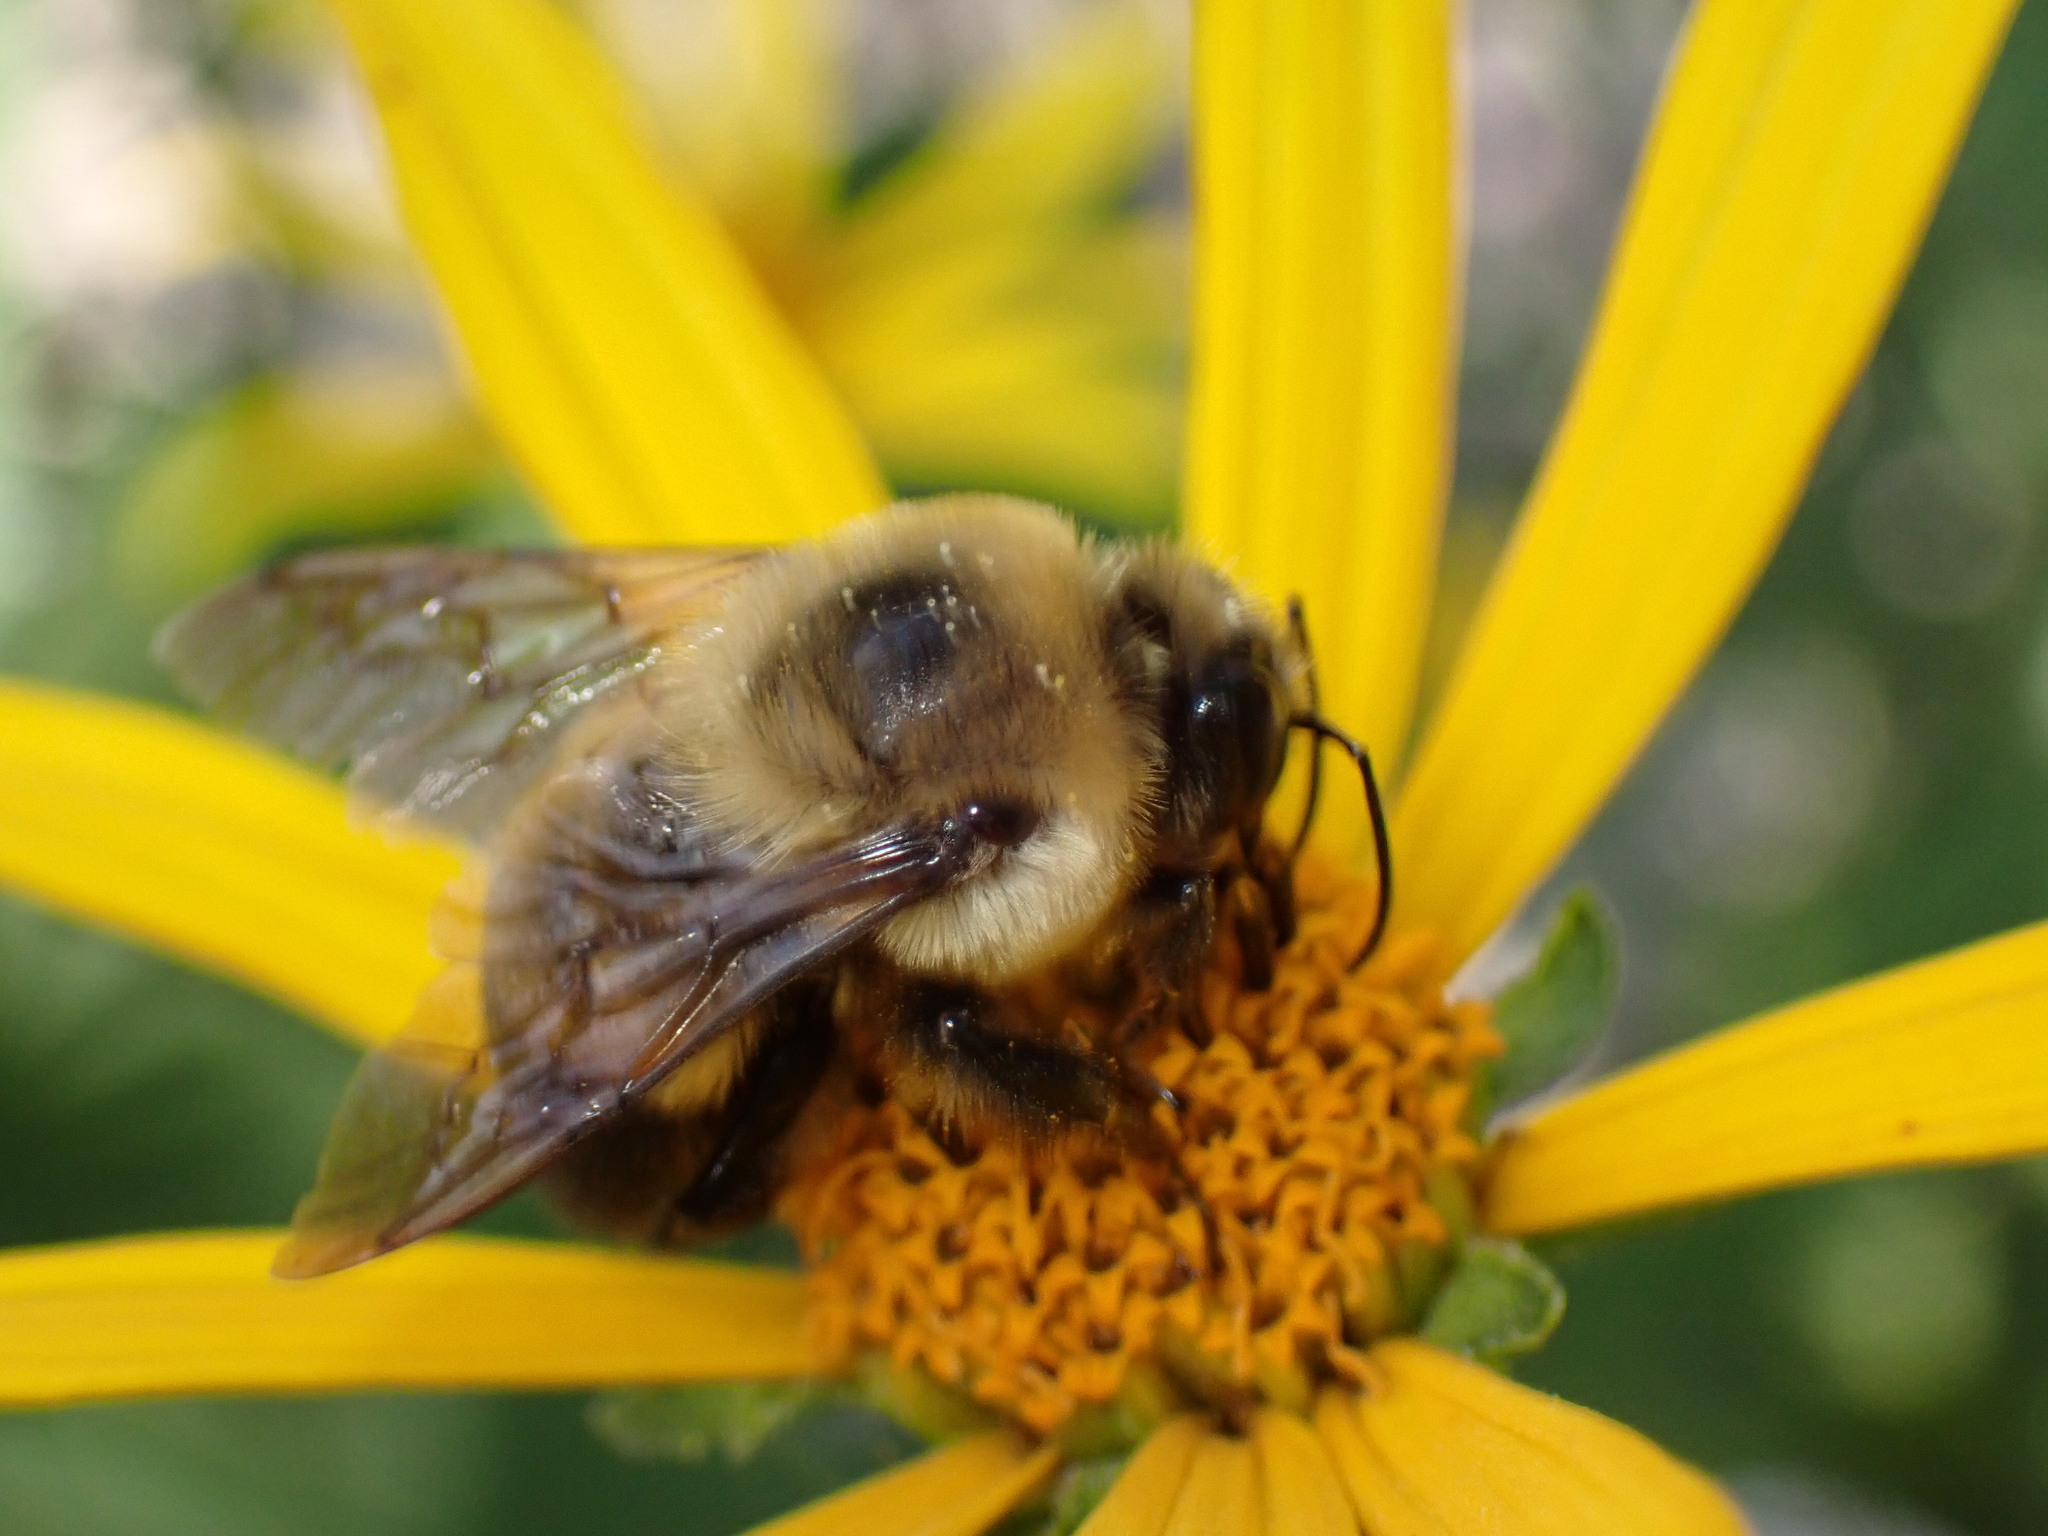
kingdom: Animalia
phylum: Arthropoda
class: Insecta
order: Hymenoptera
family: Apidae
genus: Bombus
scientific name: Bombus griseocollis
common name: Brown-belted bumble bee
